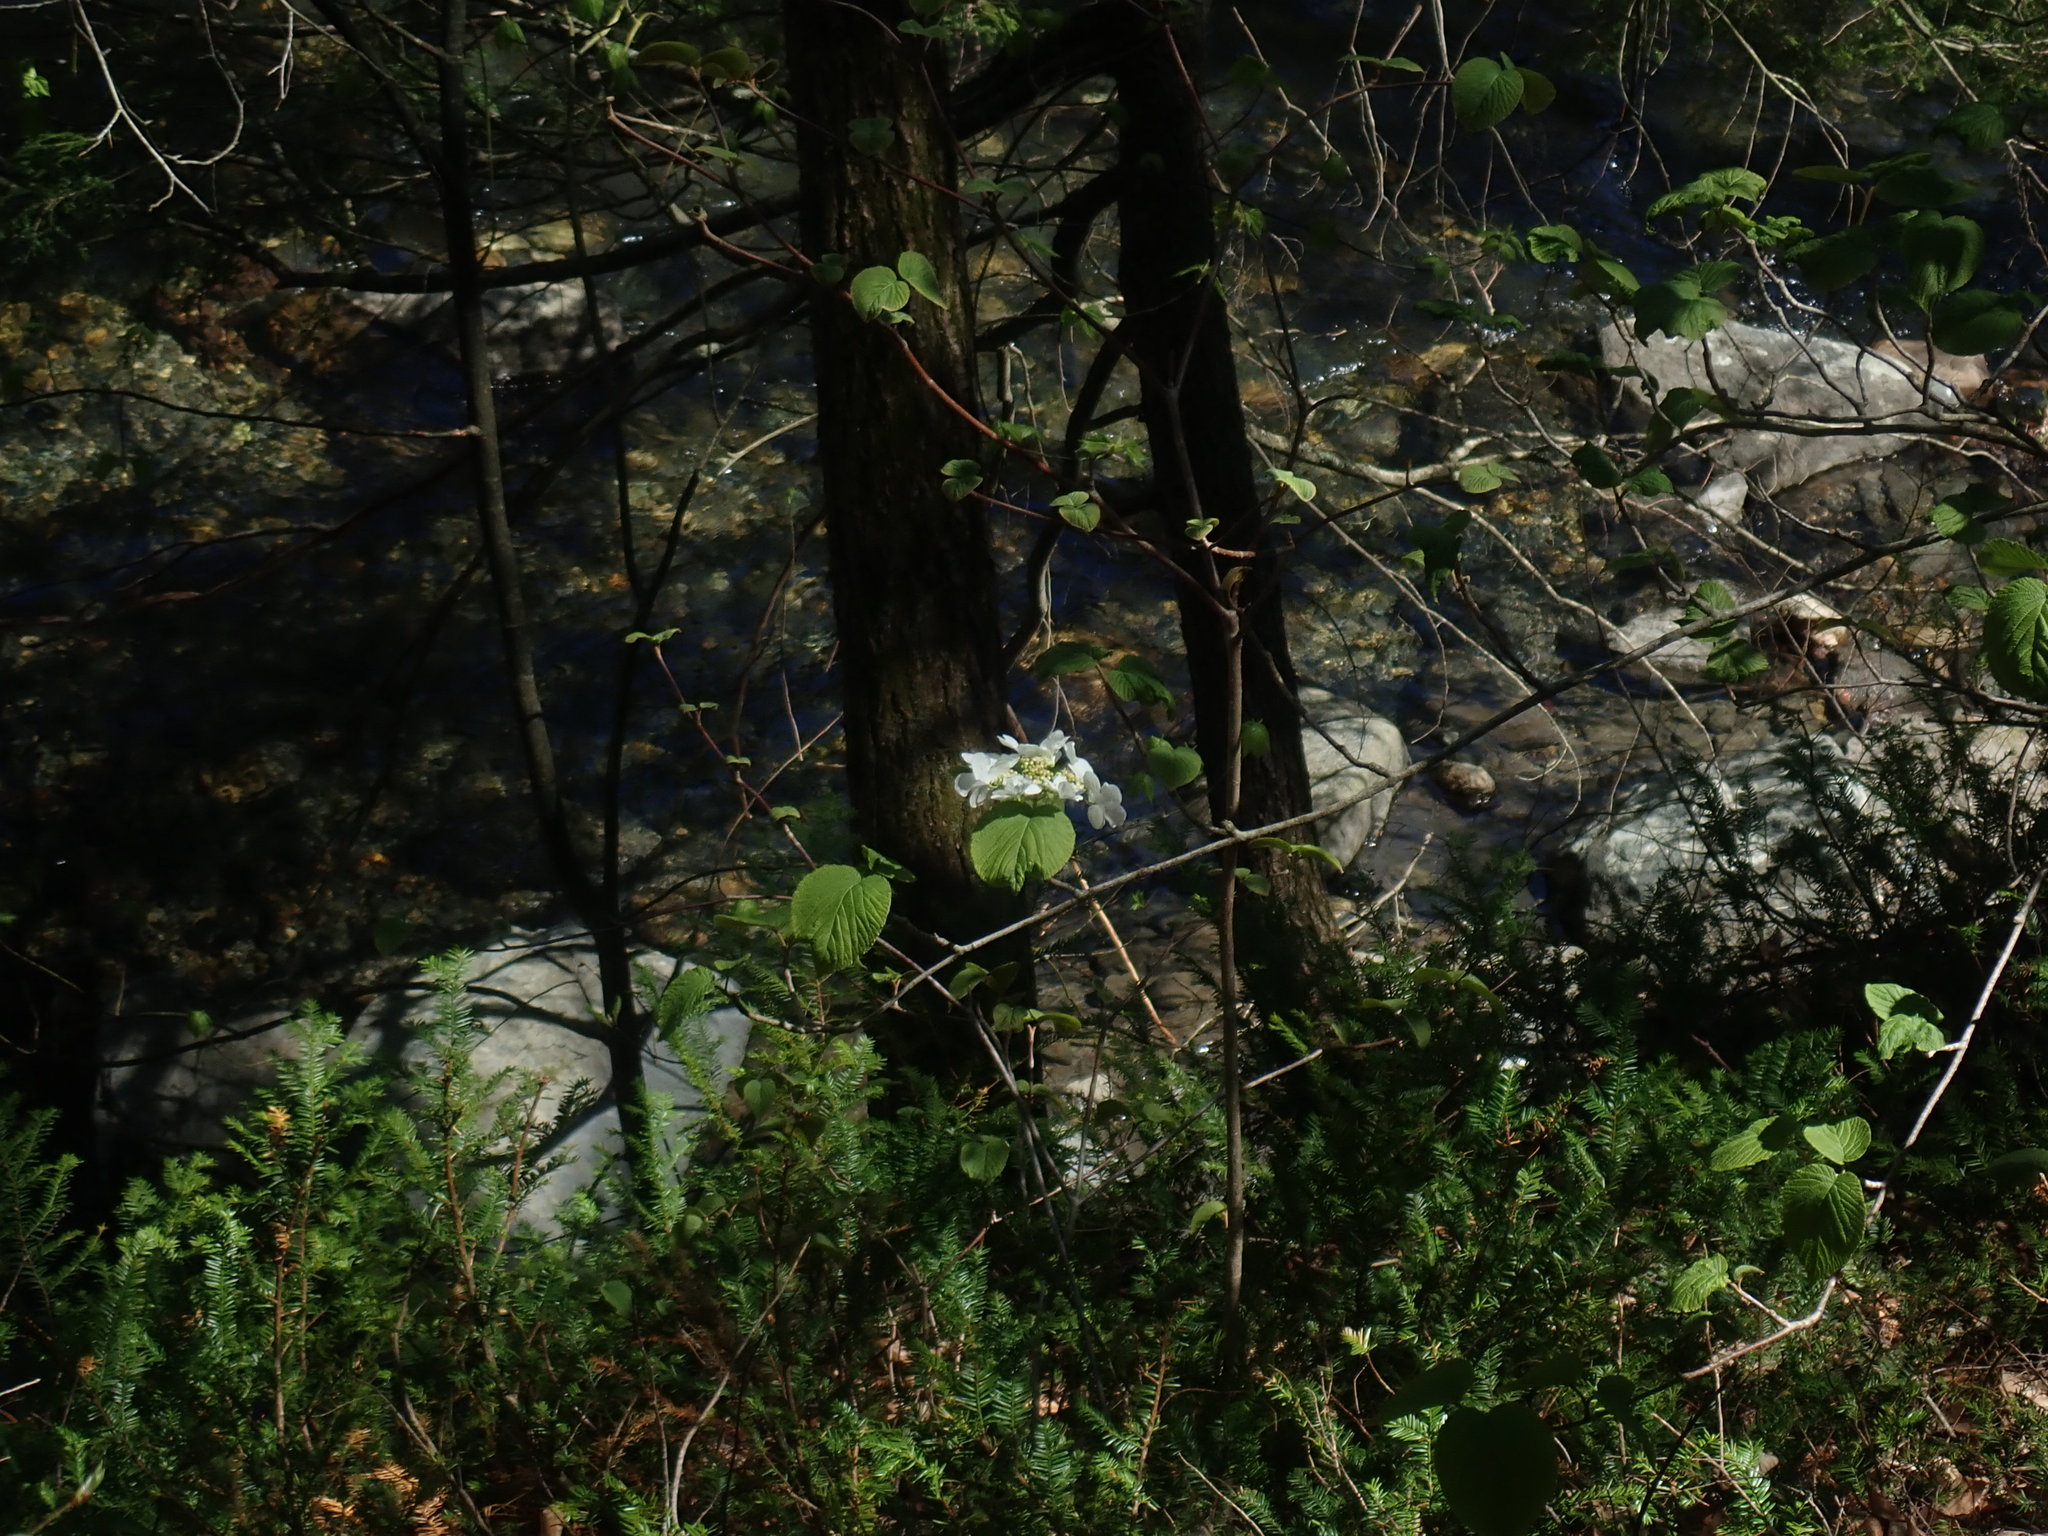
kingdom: Plantae
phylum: Tracheophyta
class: Magnoliopsida
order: Dipsacales
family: Viburnaceae
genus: Viburnum
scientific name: Viburnum lantanoides
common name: Hobblebush
